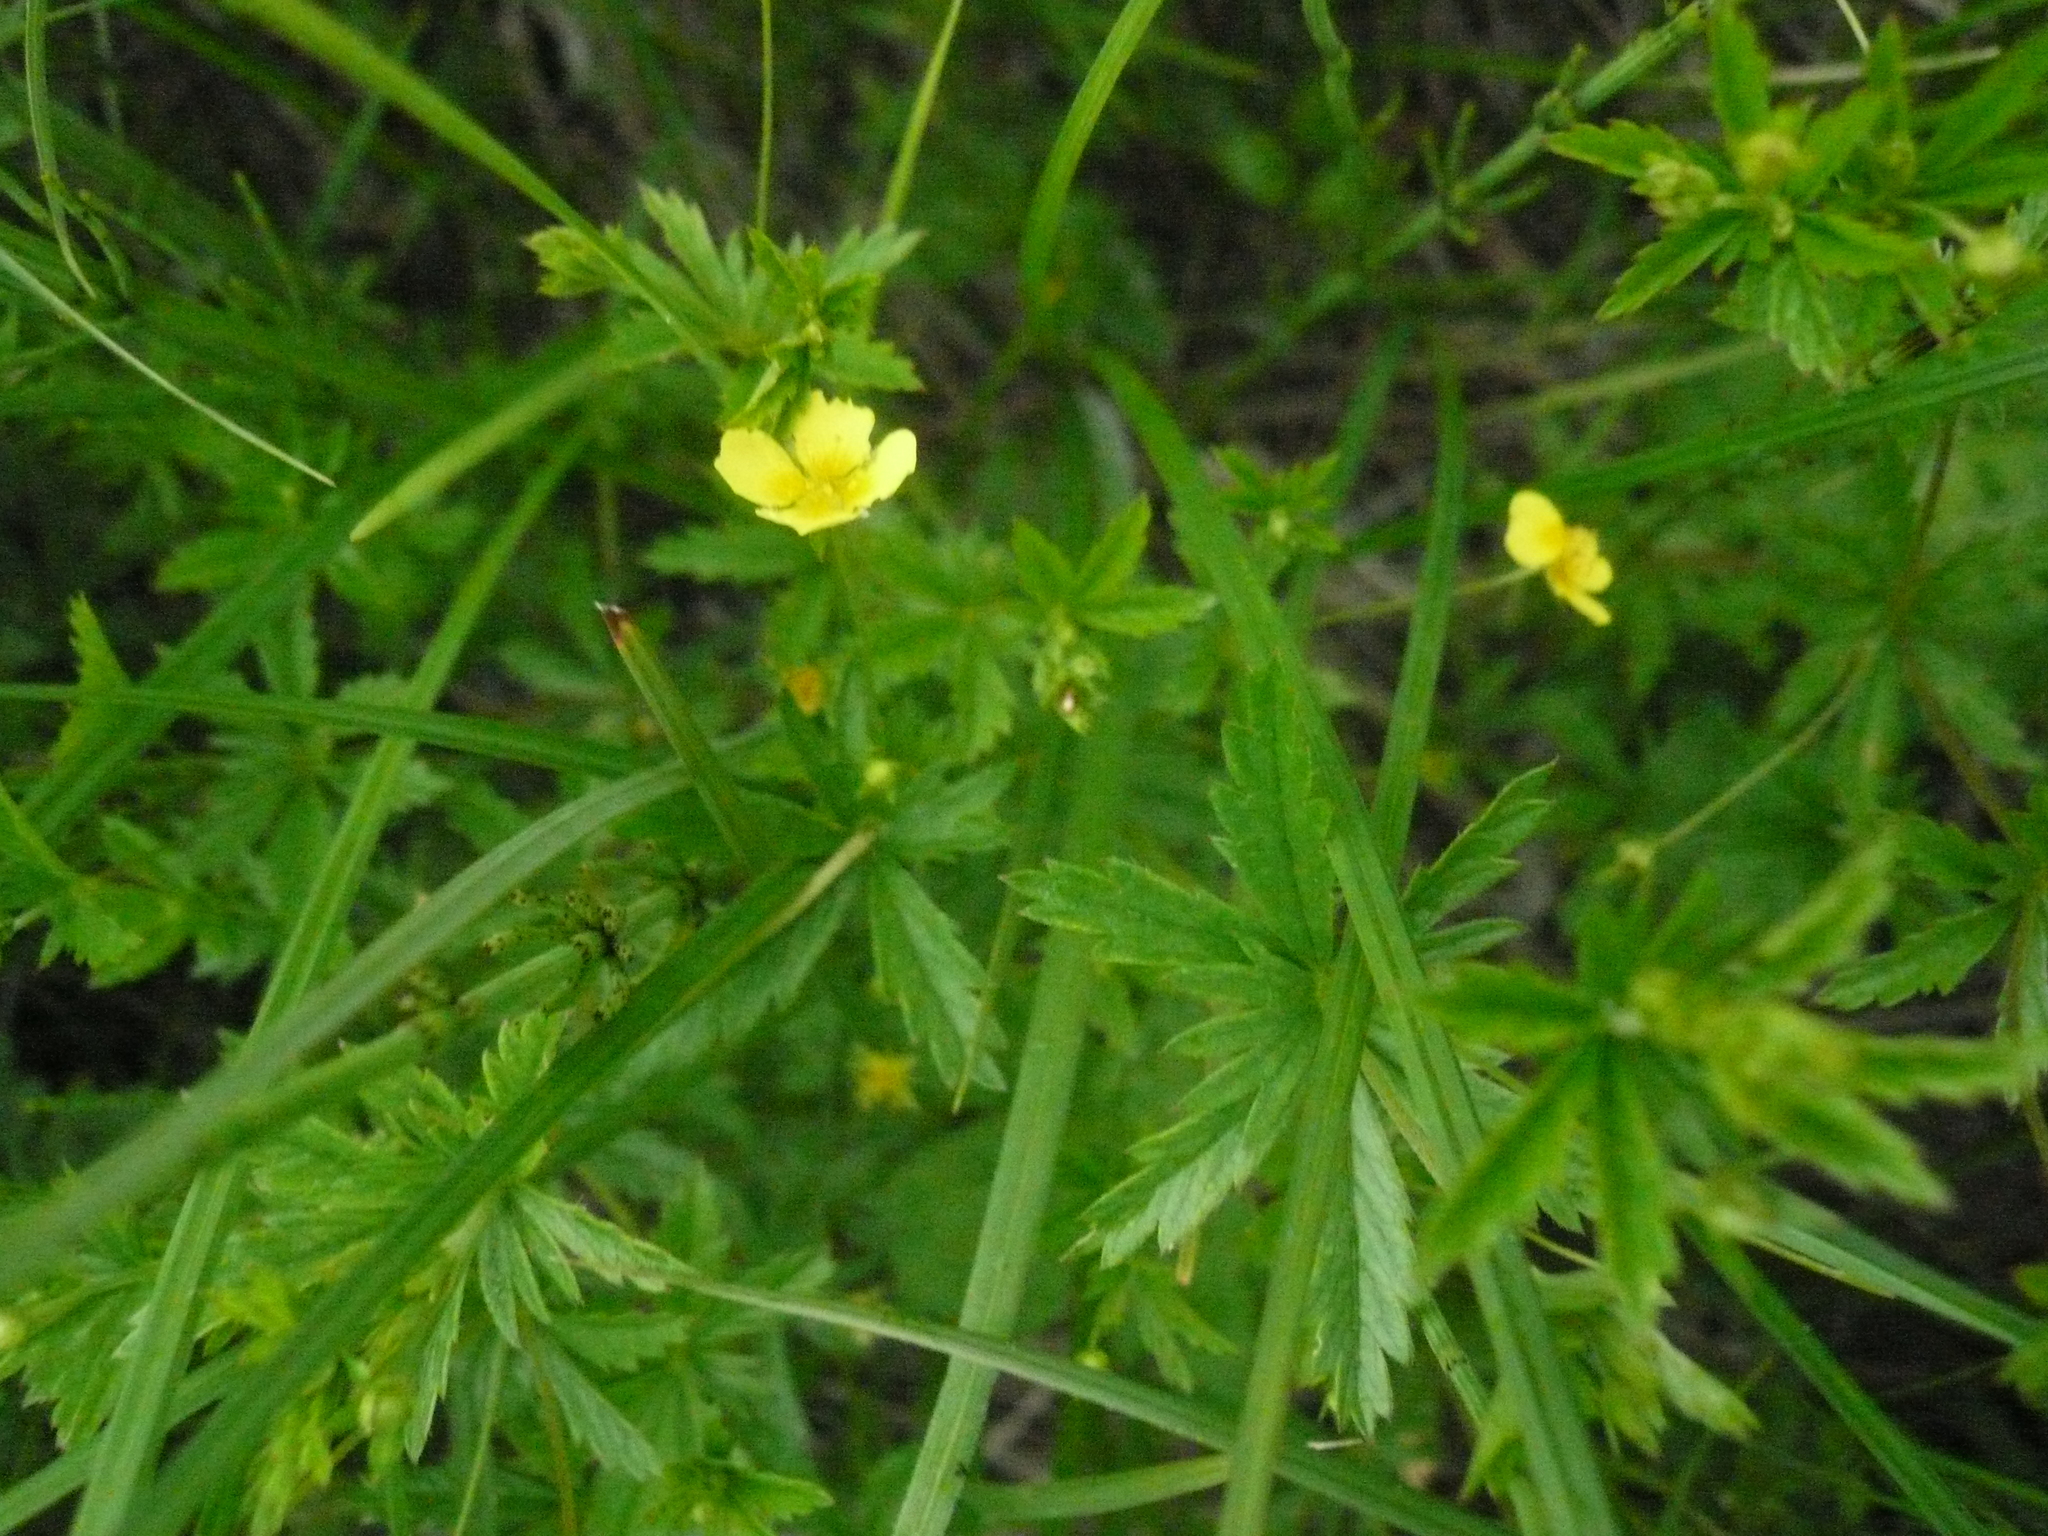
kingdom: Plantae
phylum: Tracheophyta
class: Magnoliopsida
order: Rosales
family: Rosaceae
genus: Potentilla
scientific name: Potentilla erecta
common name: Tormentil
